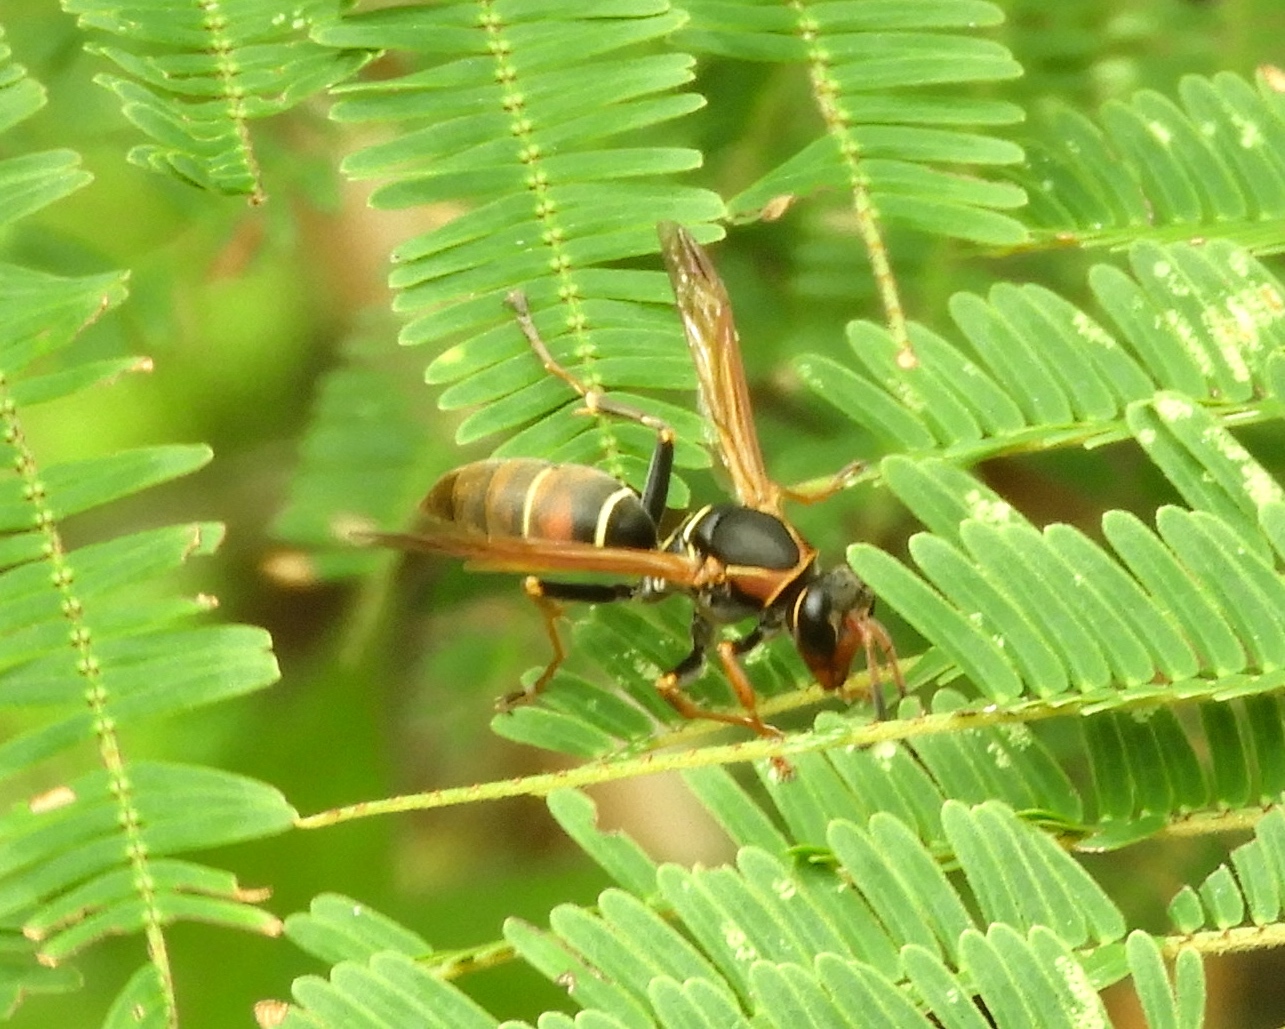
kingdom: Animalia
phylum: Arthropoda
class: Insecta
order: Hymenoptera
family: Eumenidae
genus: Polistes
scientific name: Polistes pacificus
